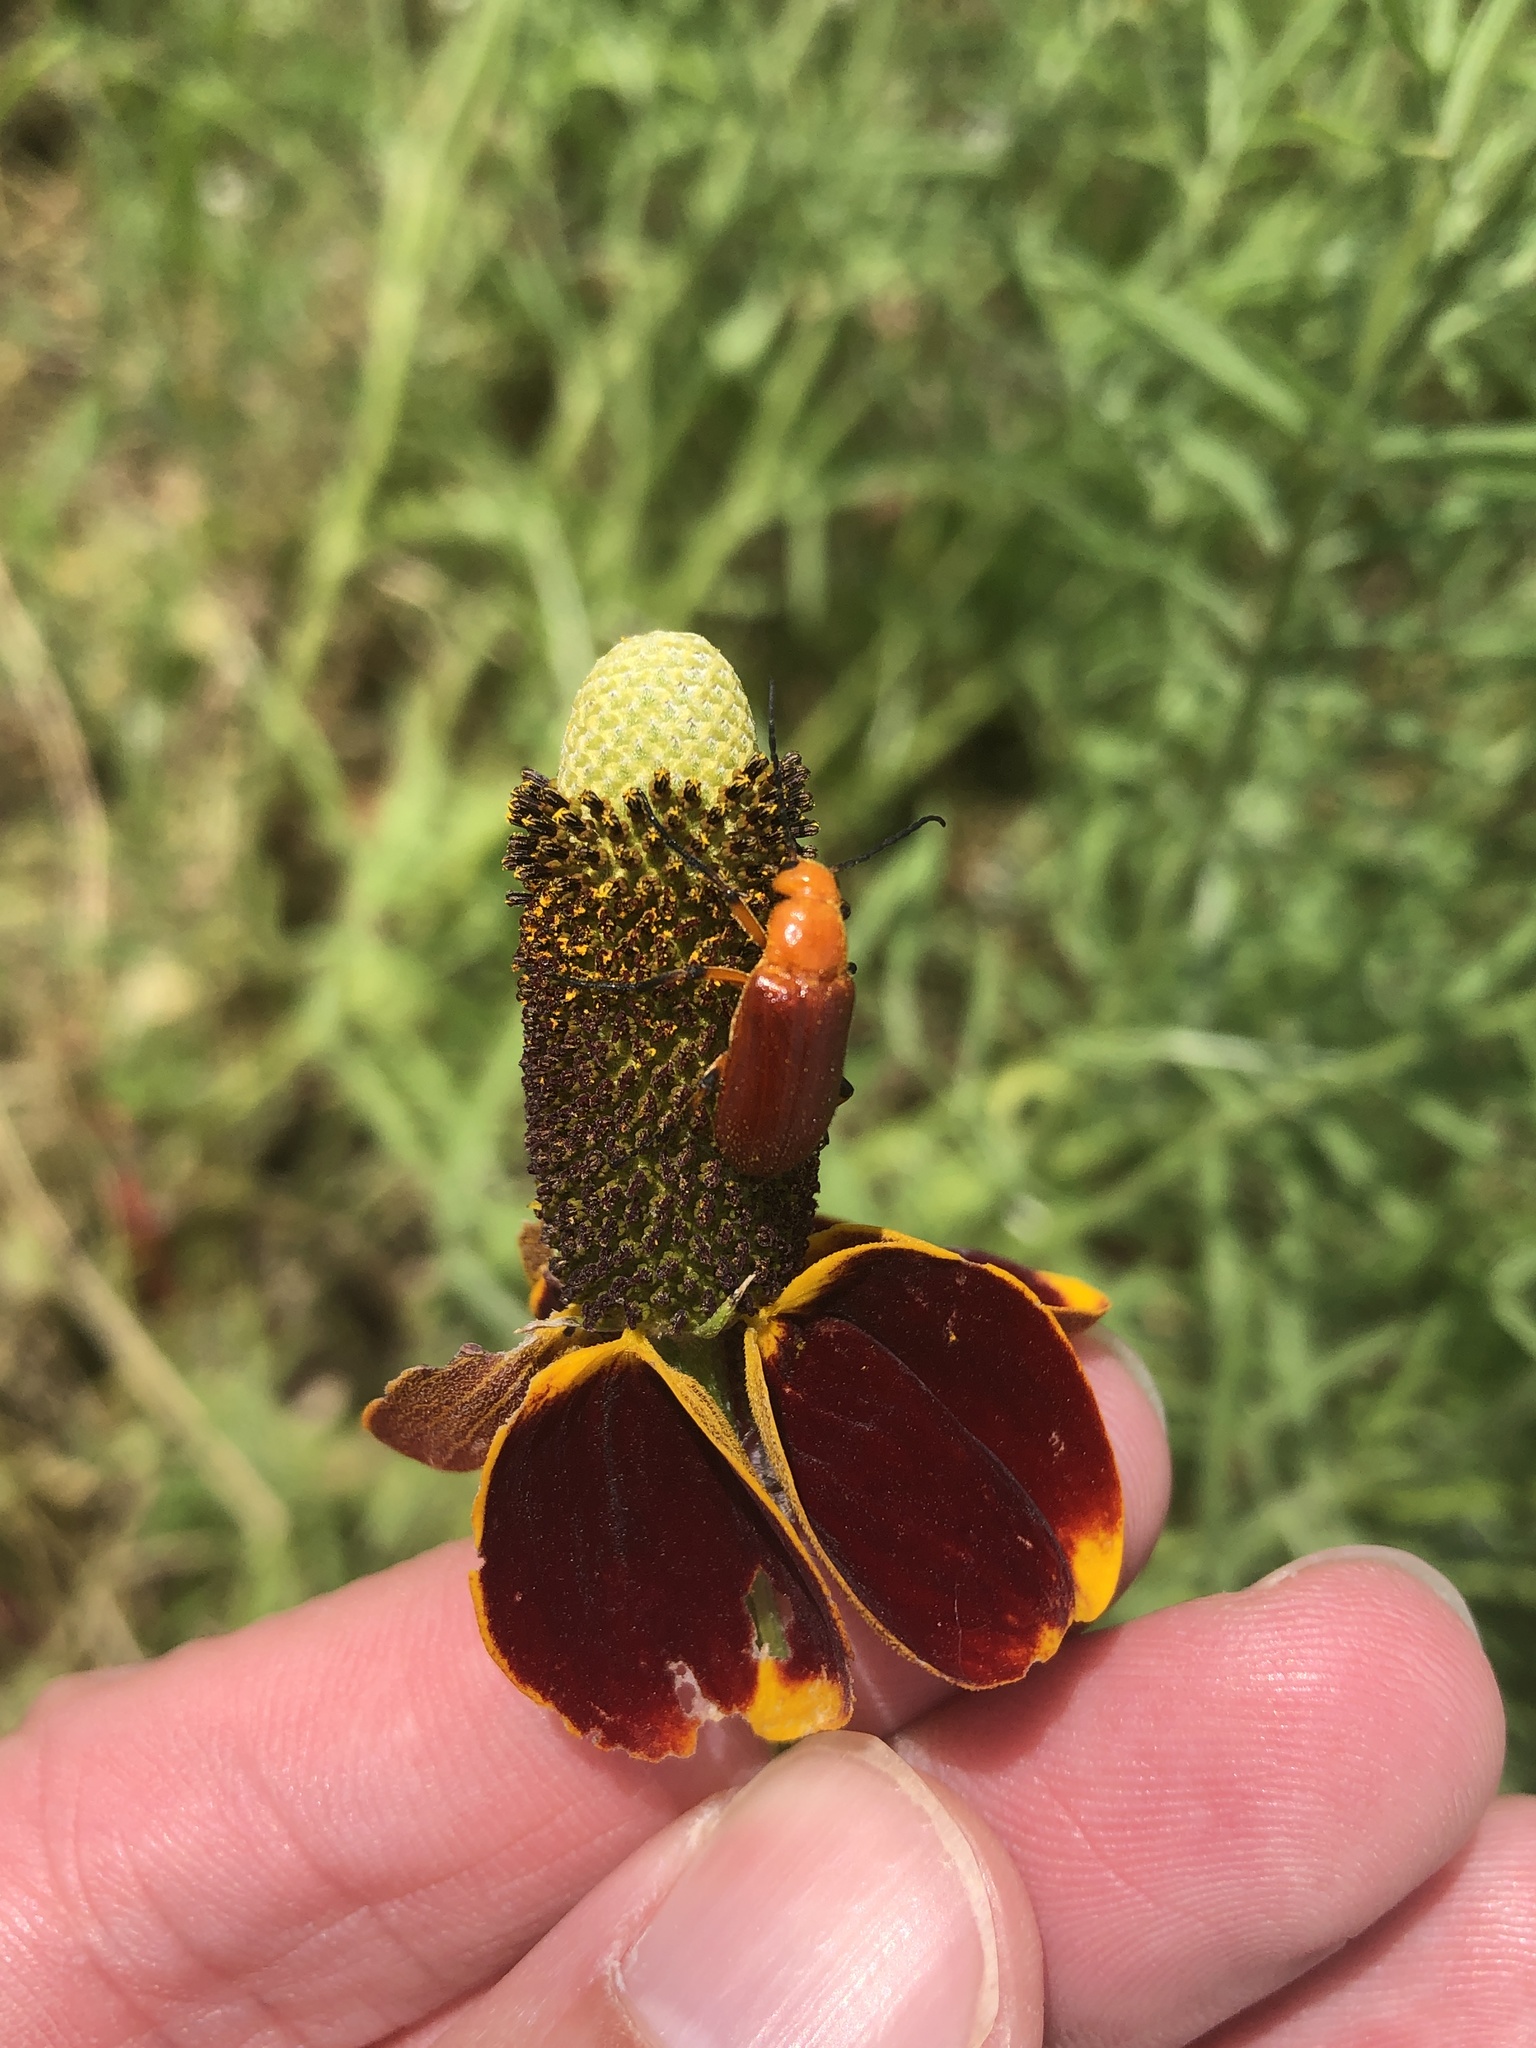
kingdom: Animalia
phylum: Arthropoda
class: Insecta
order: Coleoptera
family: Meloidae
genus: Zonitis
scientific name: Zonitis perforata
